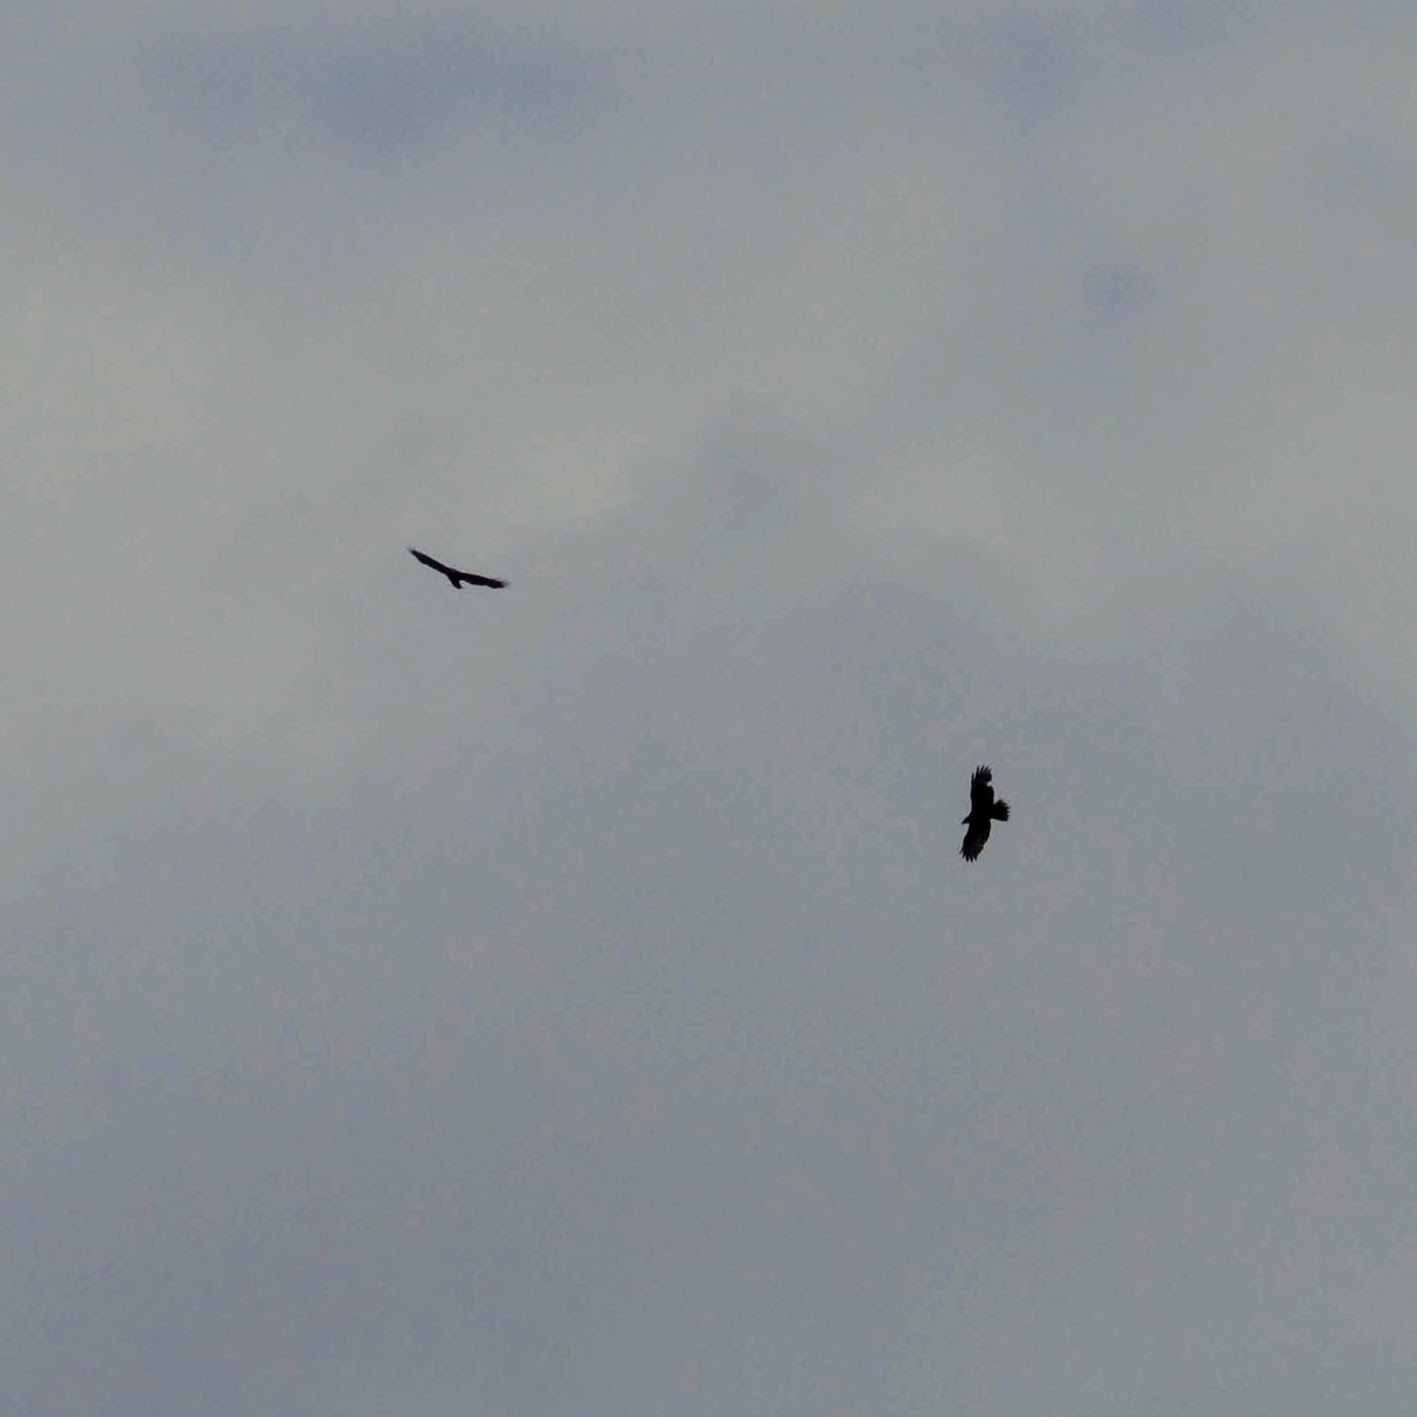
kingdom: Animalia
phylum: Chordata
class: Aves
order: Accipitriformes
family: Accipitridae
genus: Buteo
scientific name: Buteo buteo
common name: Common buzzard
